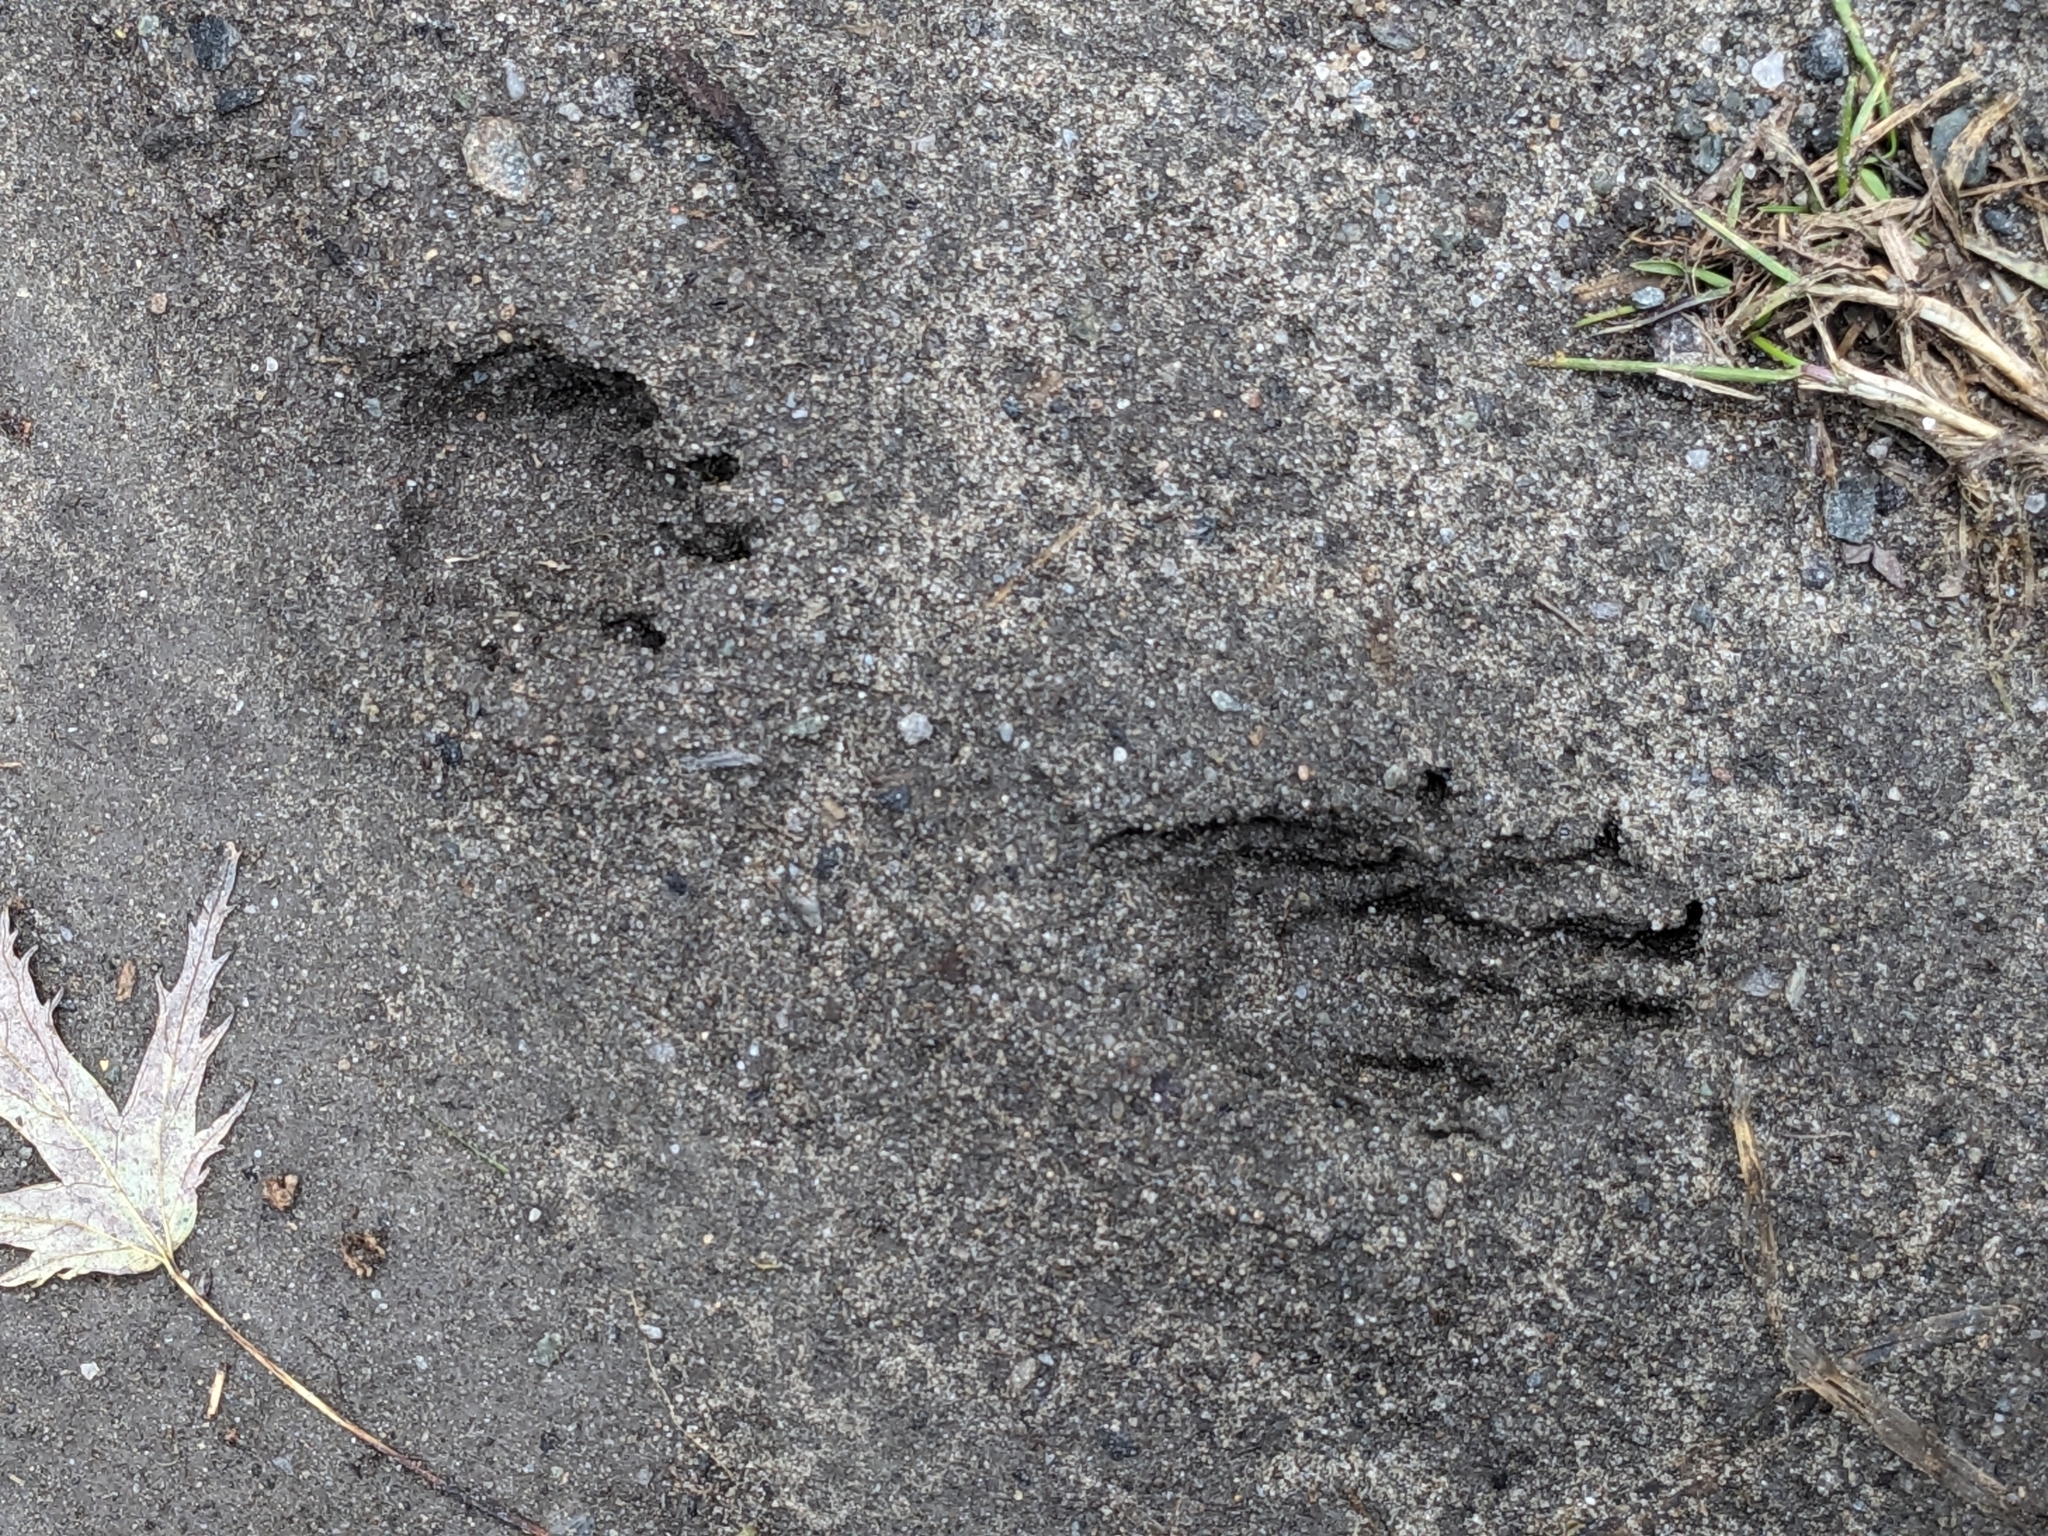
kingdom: Animalia
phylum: Chordata
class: Mammalia
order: Carnivora
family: Procyonidae
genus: Procyon
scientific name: Procyon lotor
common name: Raccoon
